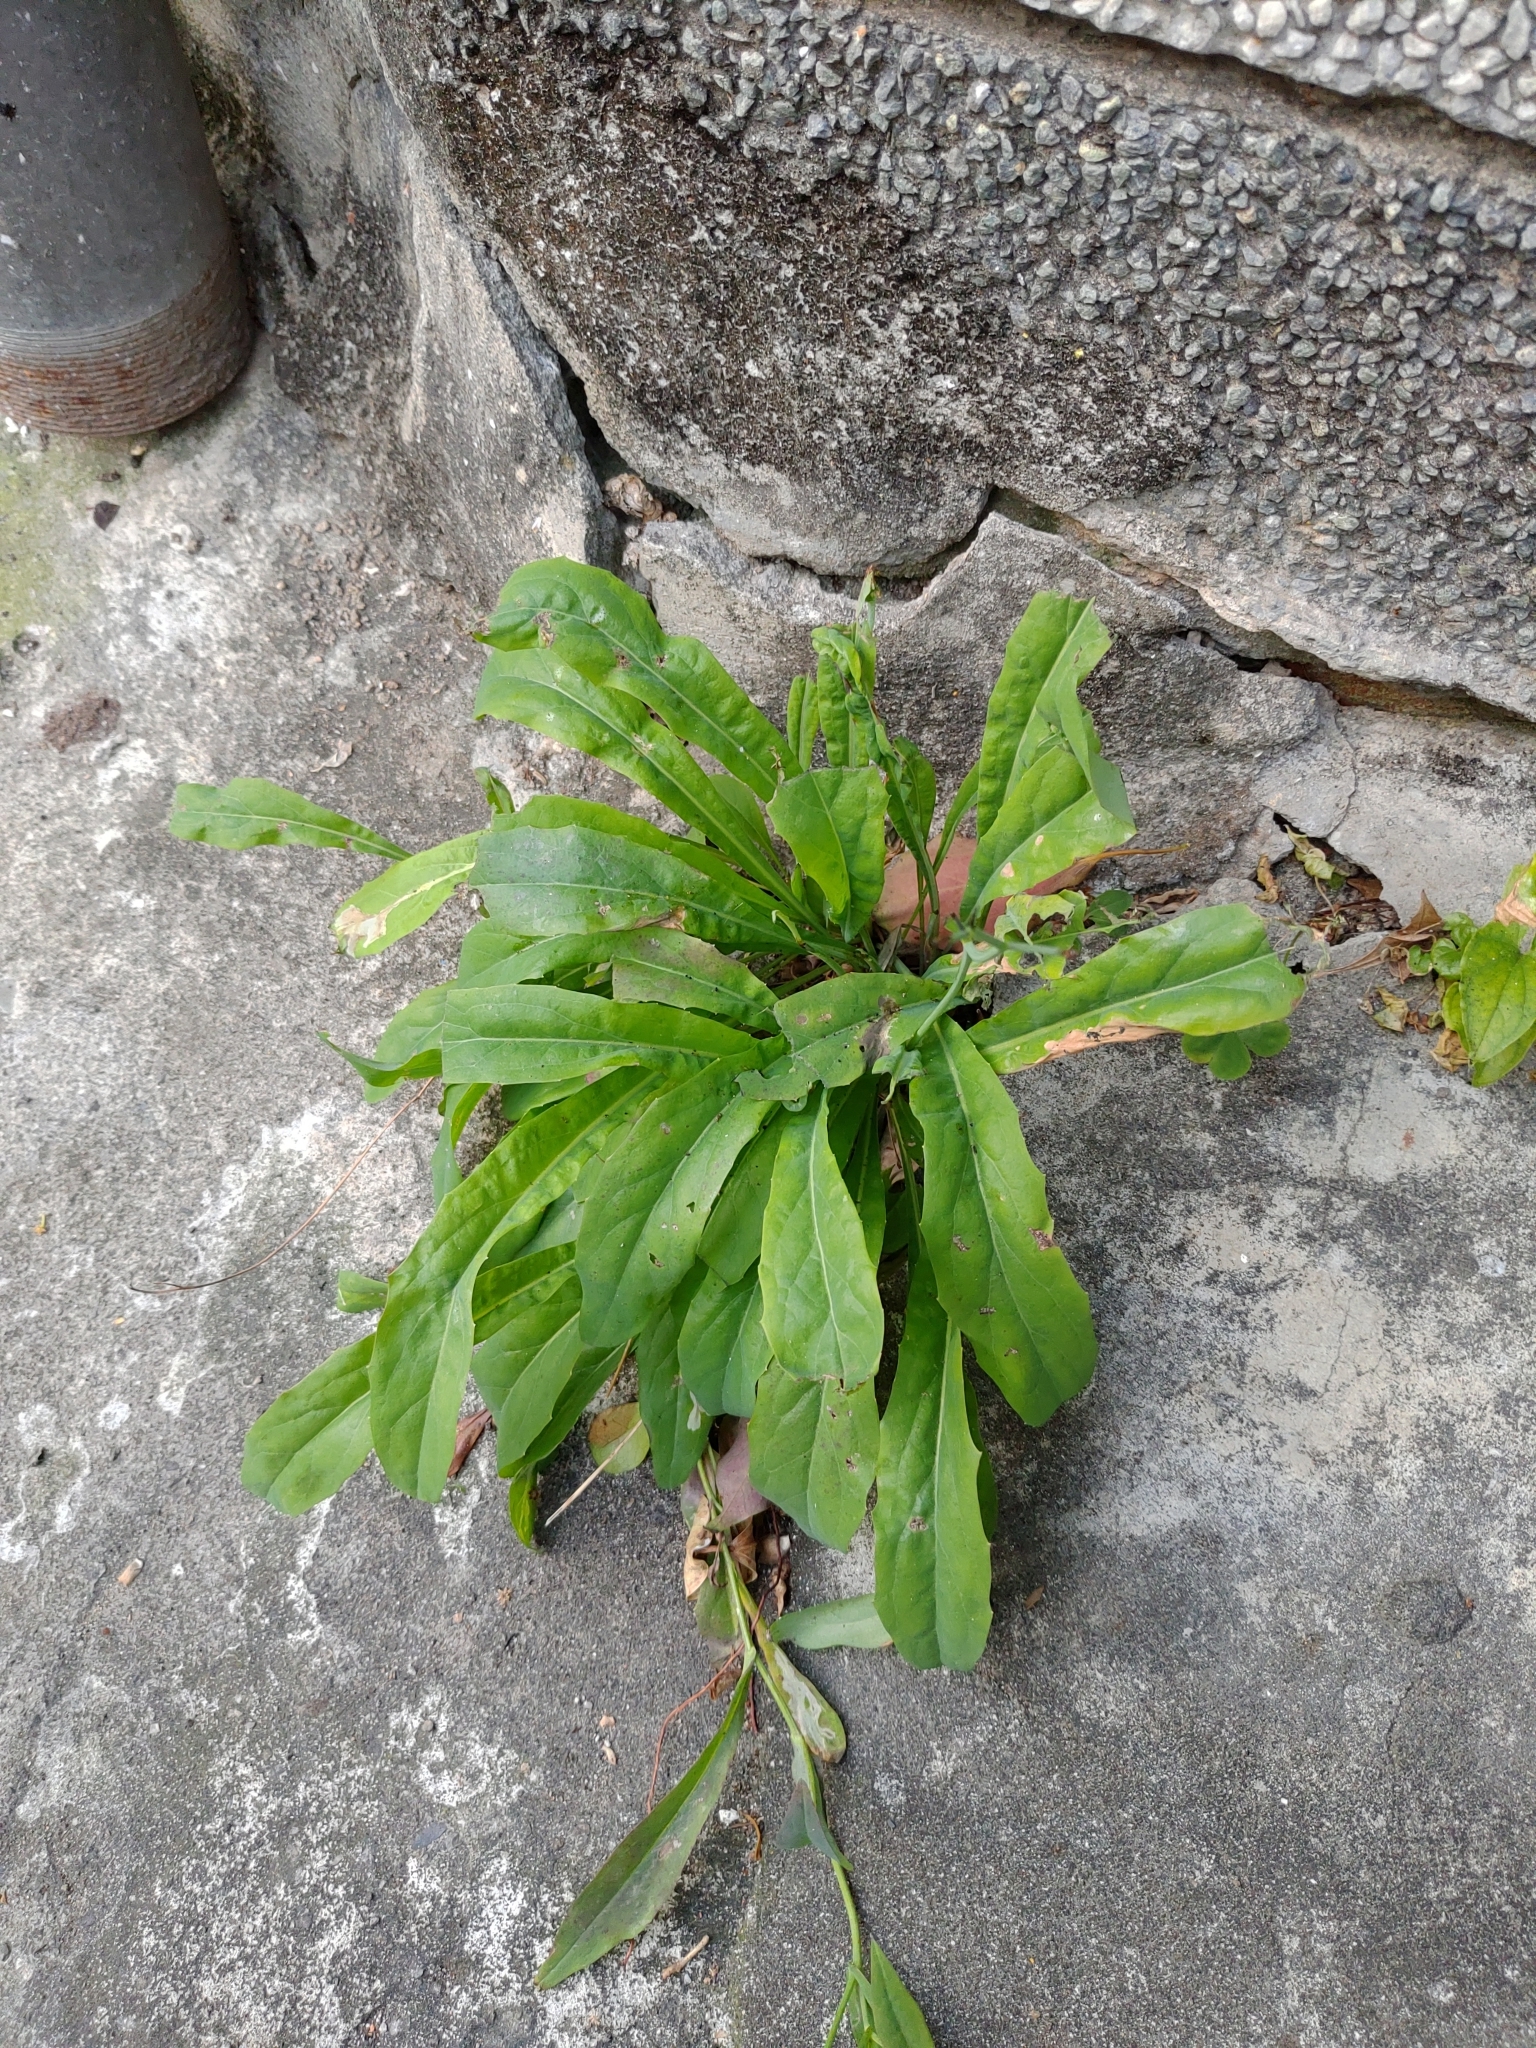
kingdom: Plantae
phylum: Tracheophyta
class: Magnoliopsida
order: Asterales
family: Asteraceae
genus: Ixeris
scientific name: Ixeris chinensis
